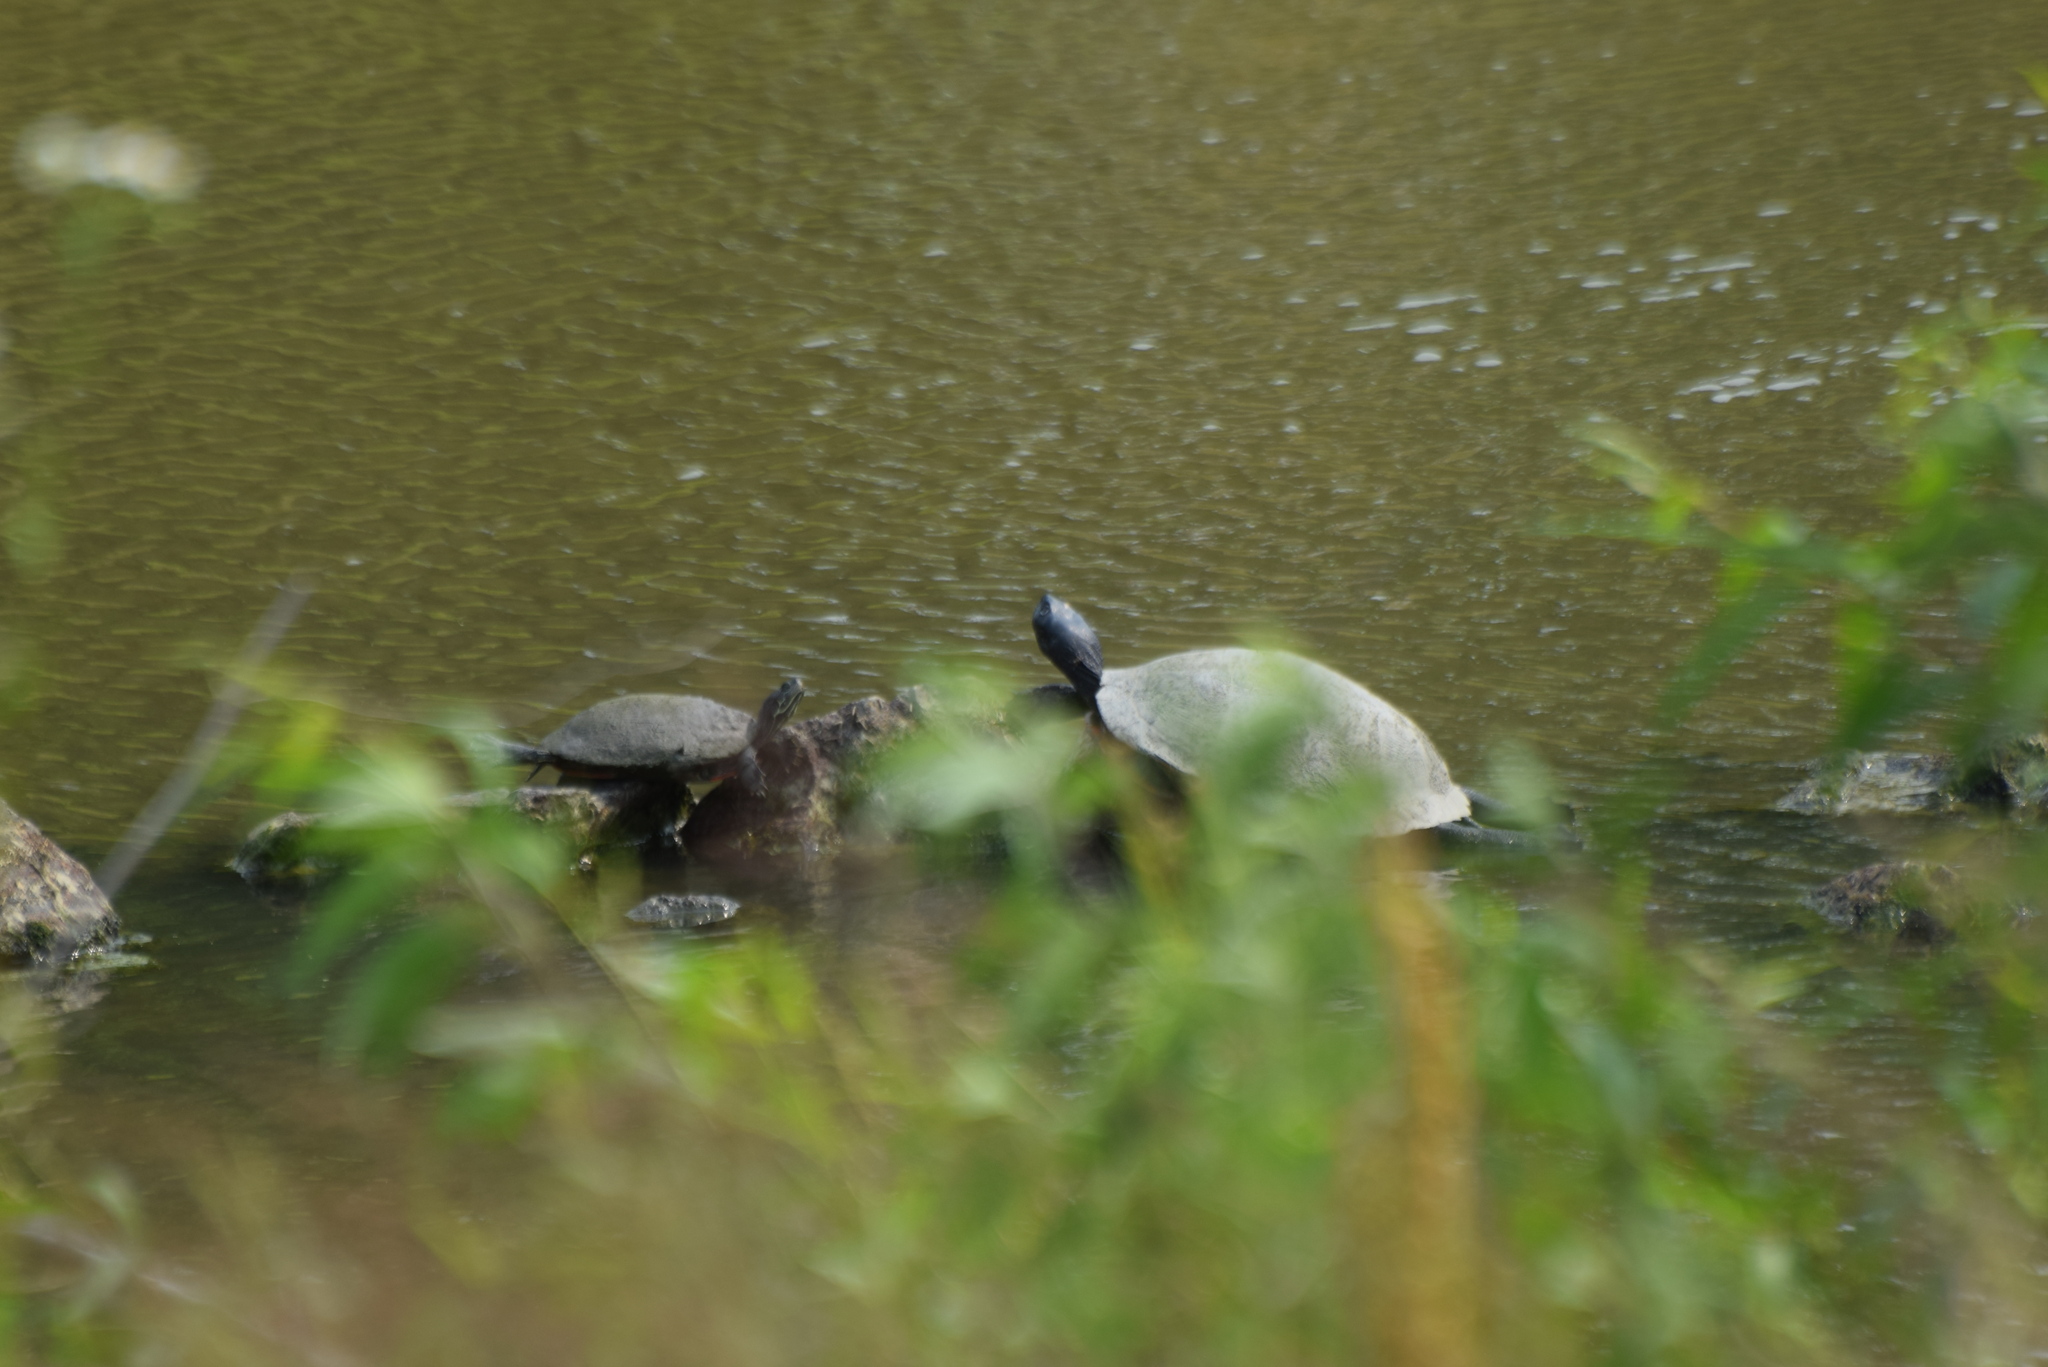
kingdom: Animalia
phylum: Chordata
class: Testudines
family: Emydidae
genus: Pseudemys
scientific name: Pseudemys rubriventris
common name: American red-bellied turtle
